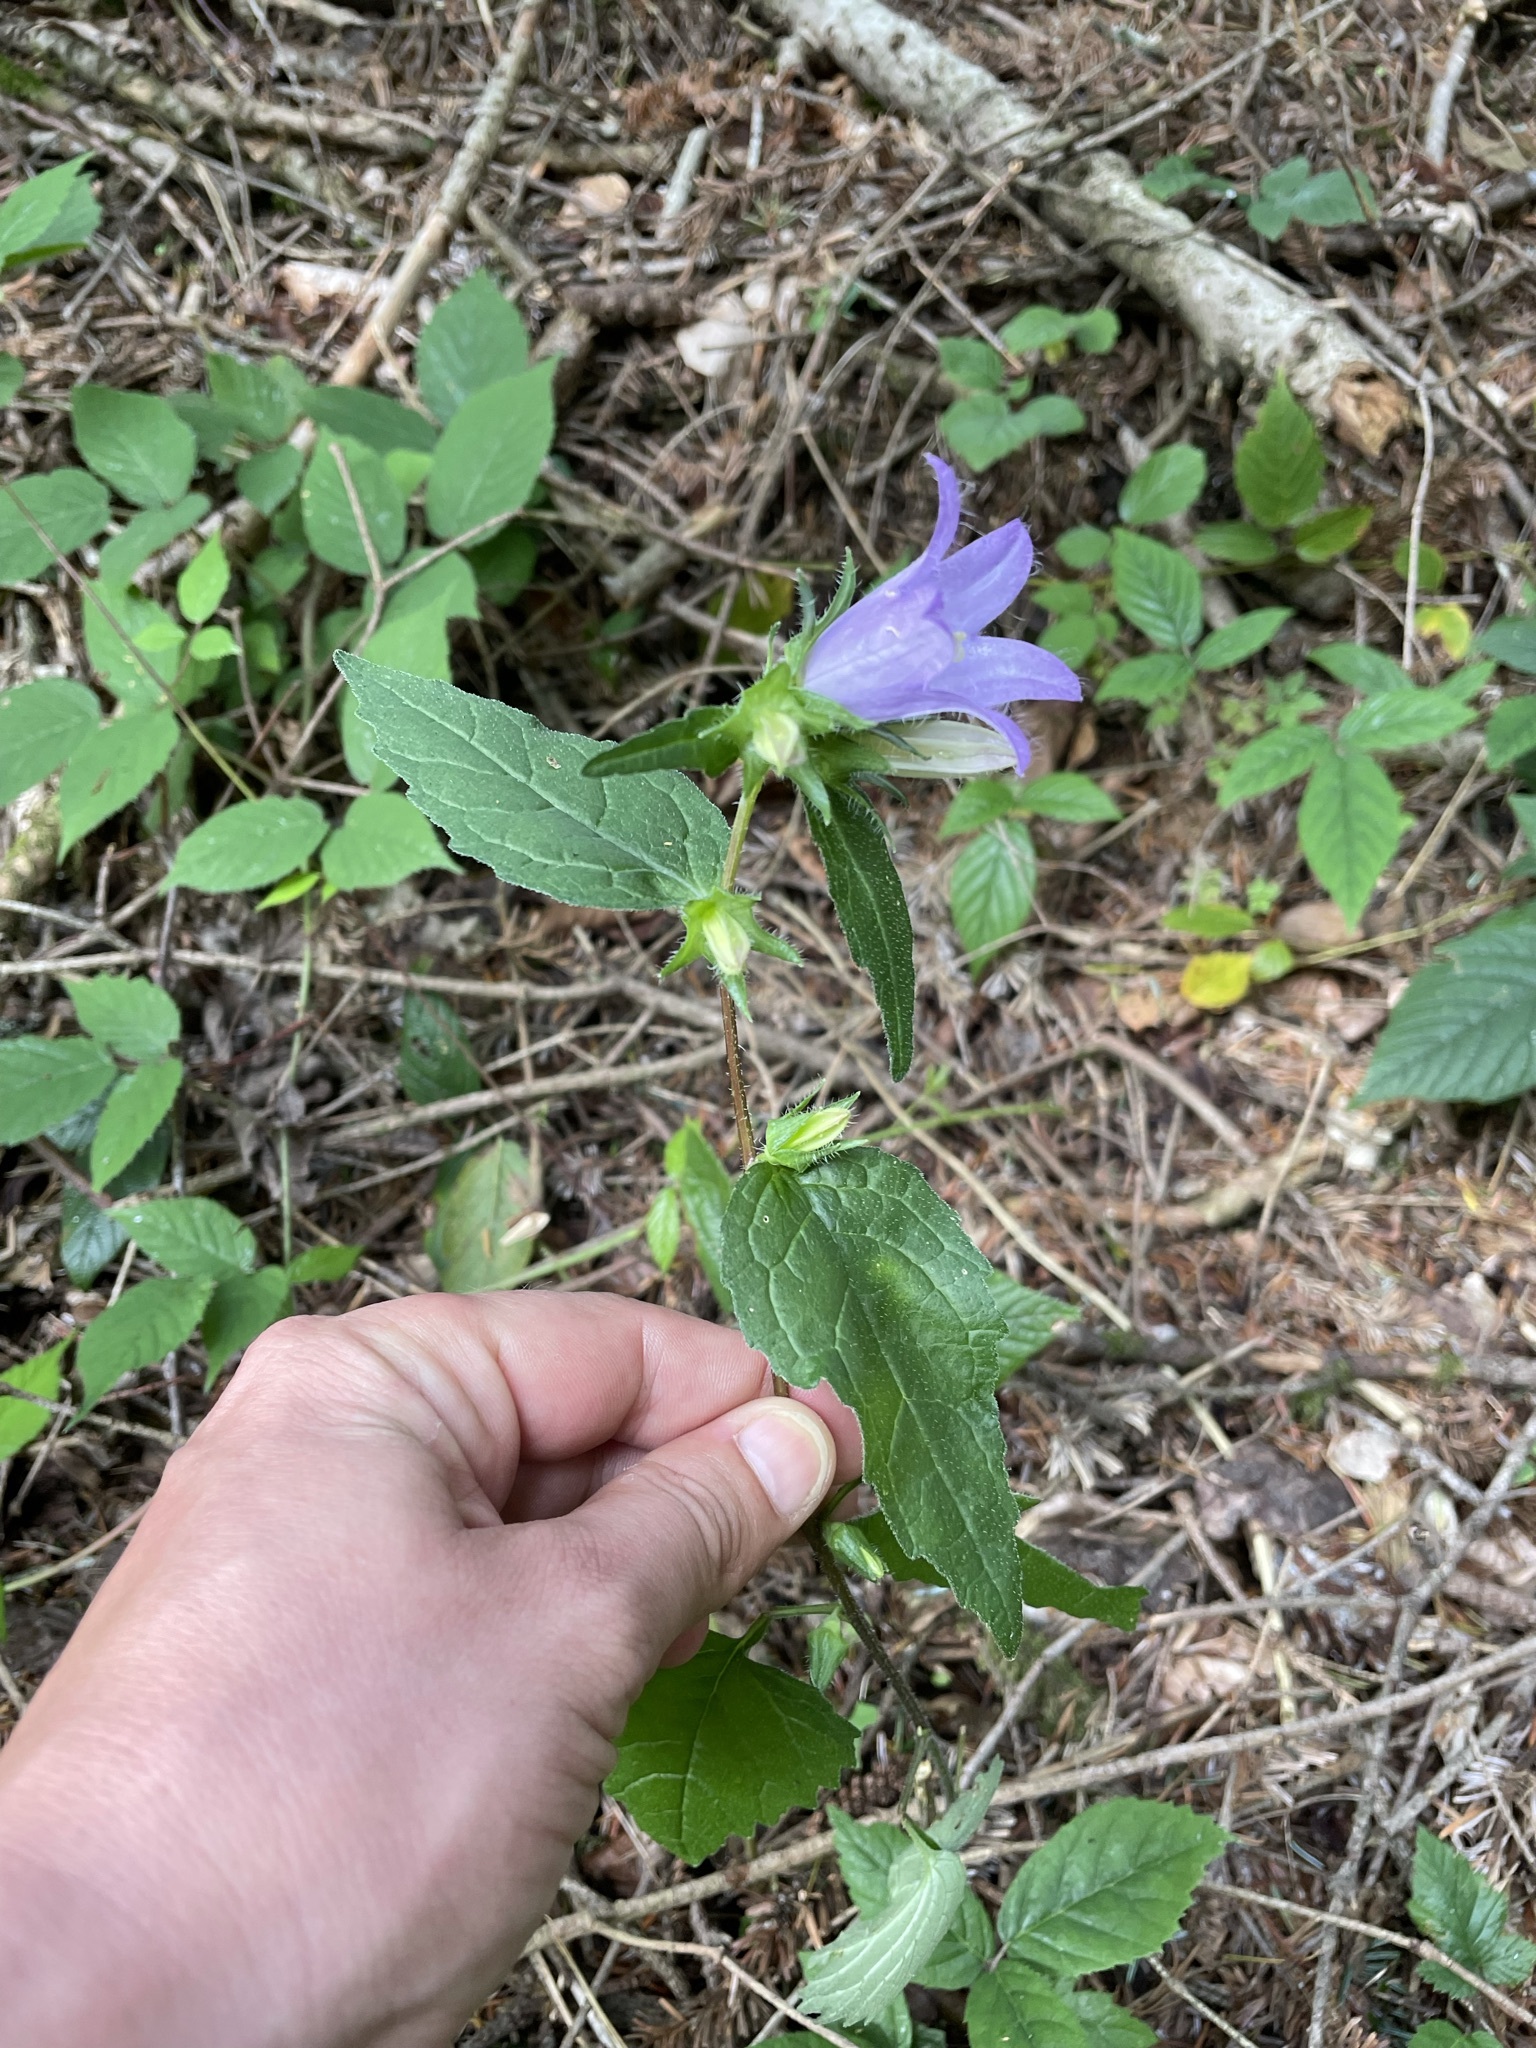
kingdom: Plantae
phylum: Tracheophyta
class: Magnoliopsida
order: Asterales
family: Campanulaceae
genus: Campanula
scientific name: Campanula trachelium
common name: Nettle-leaved bellflower
